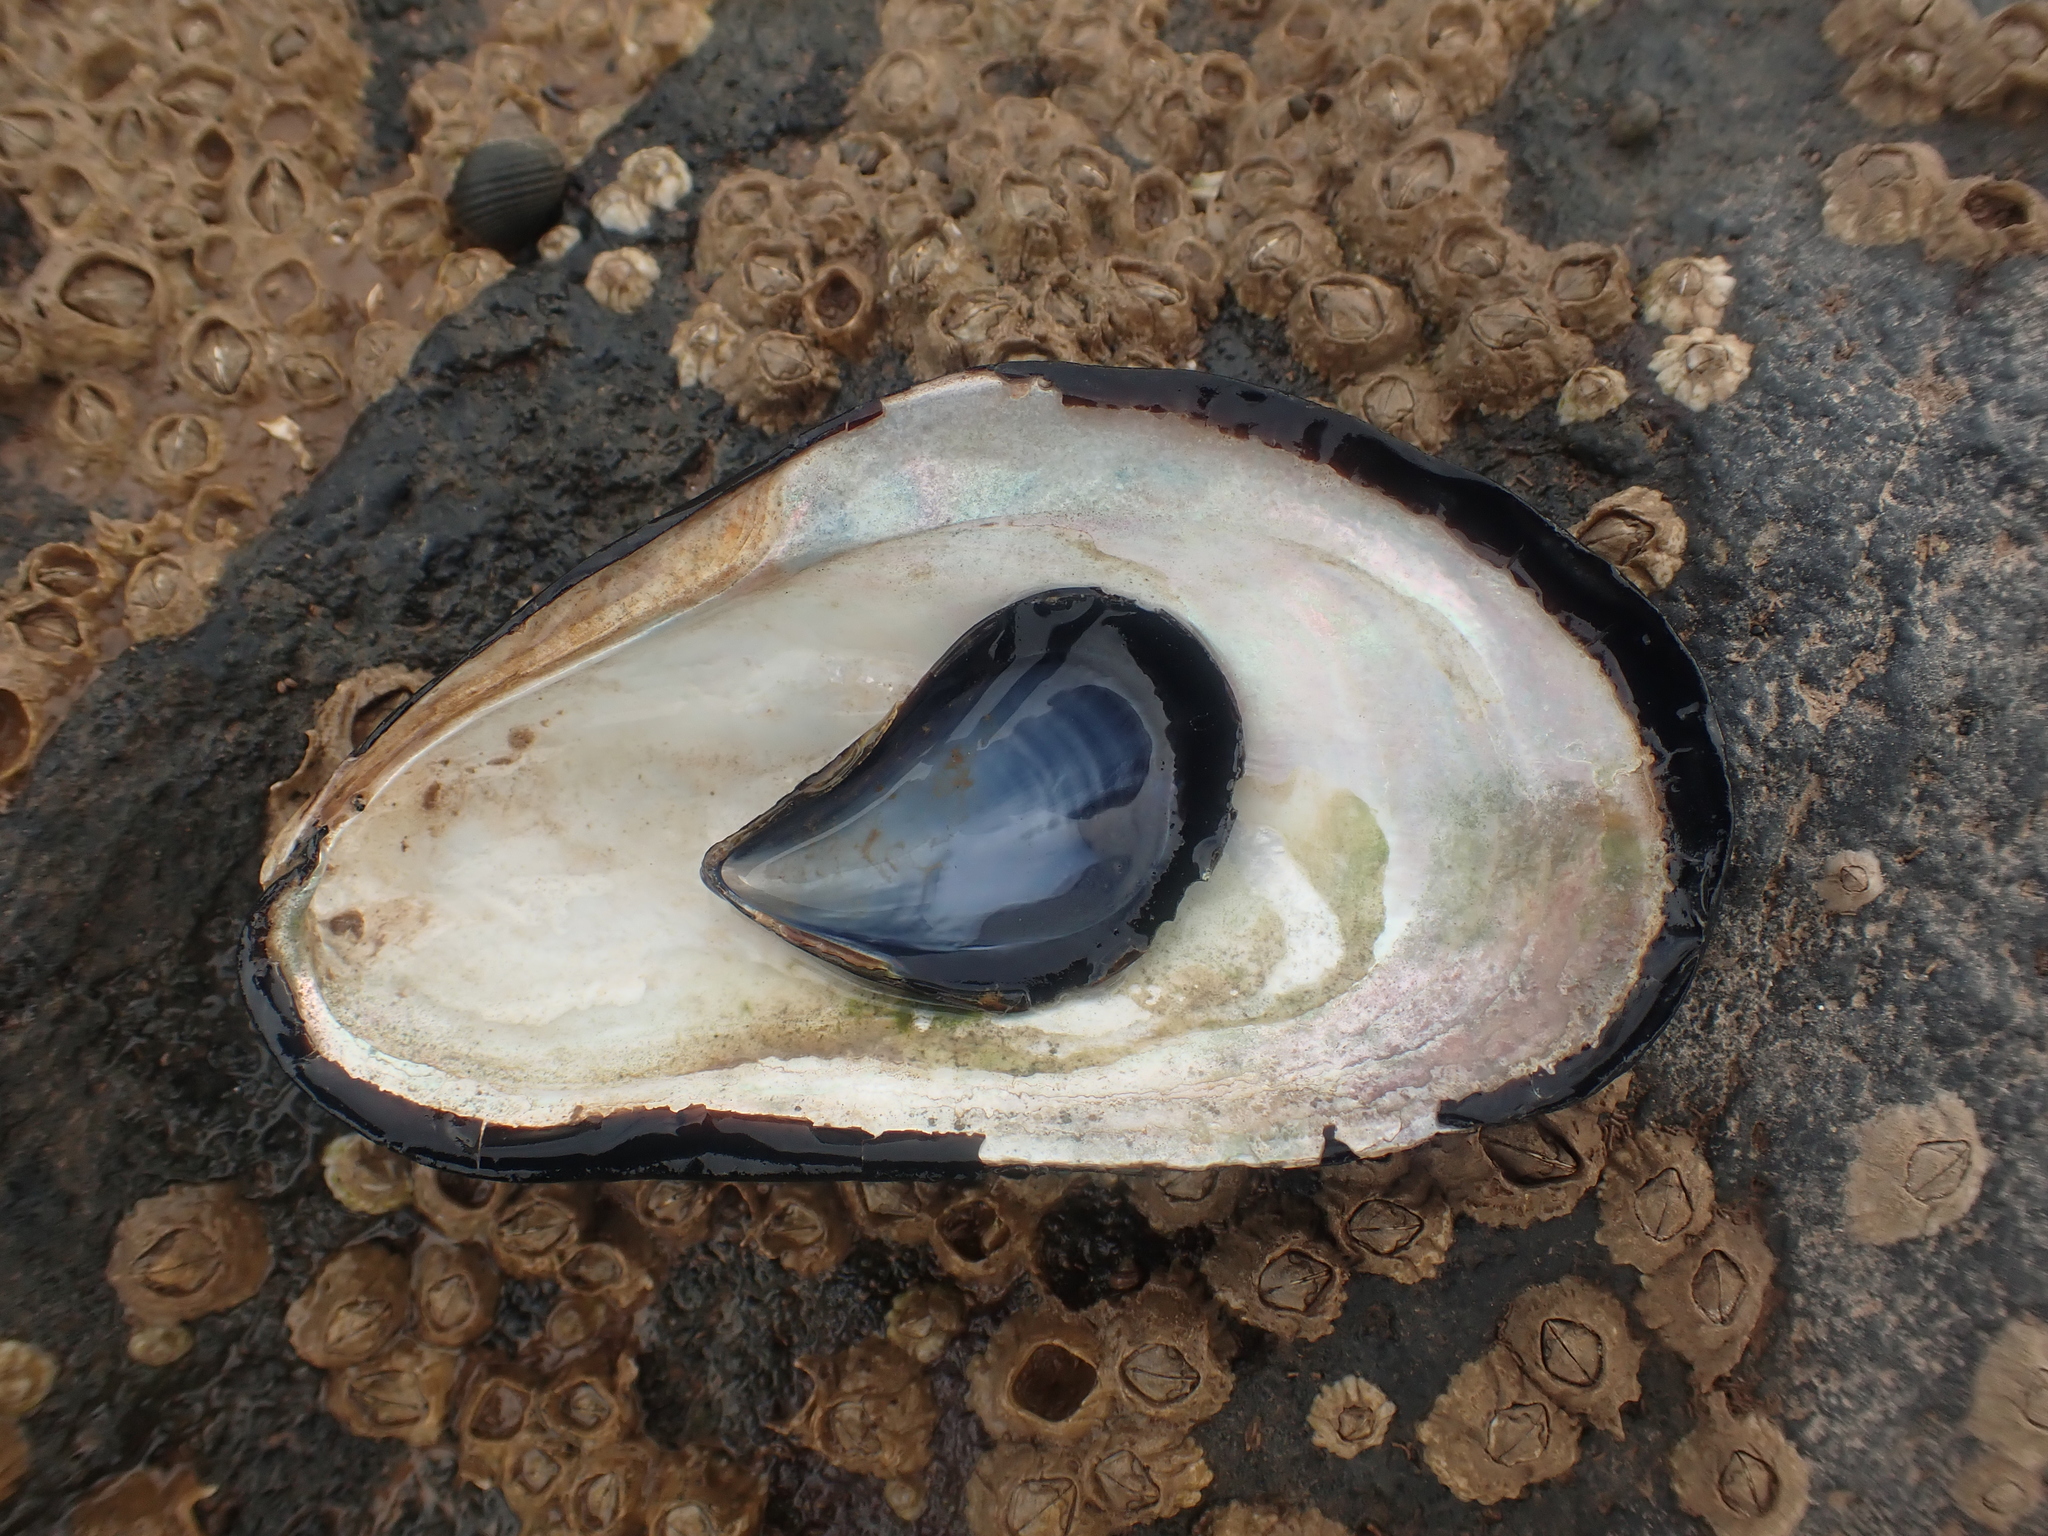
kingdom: Animalia
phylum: Mollusca
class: Bivalvia
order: Mytilida
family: Mytilidae
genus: Mytilus
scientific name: Mytilus edulis
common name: Blue mussel
